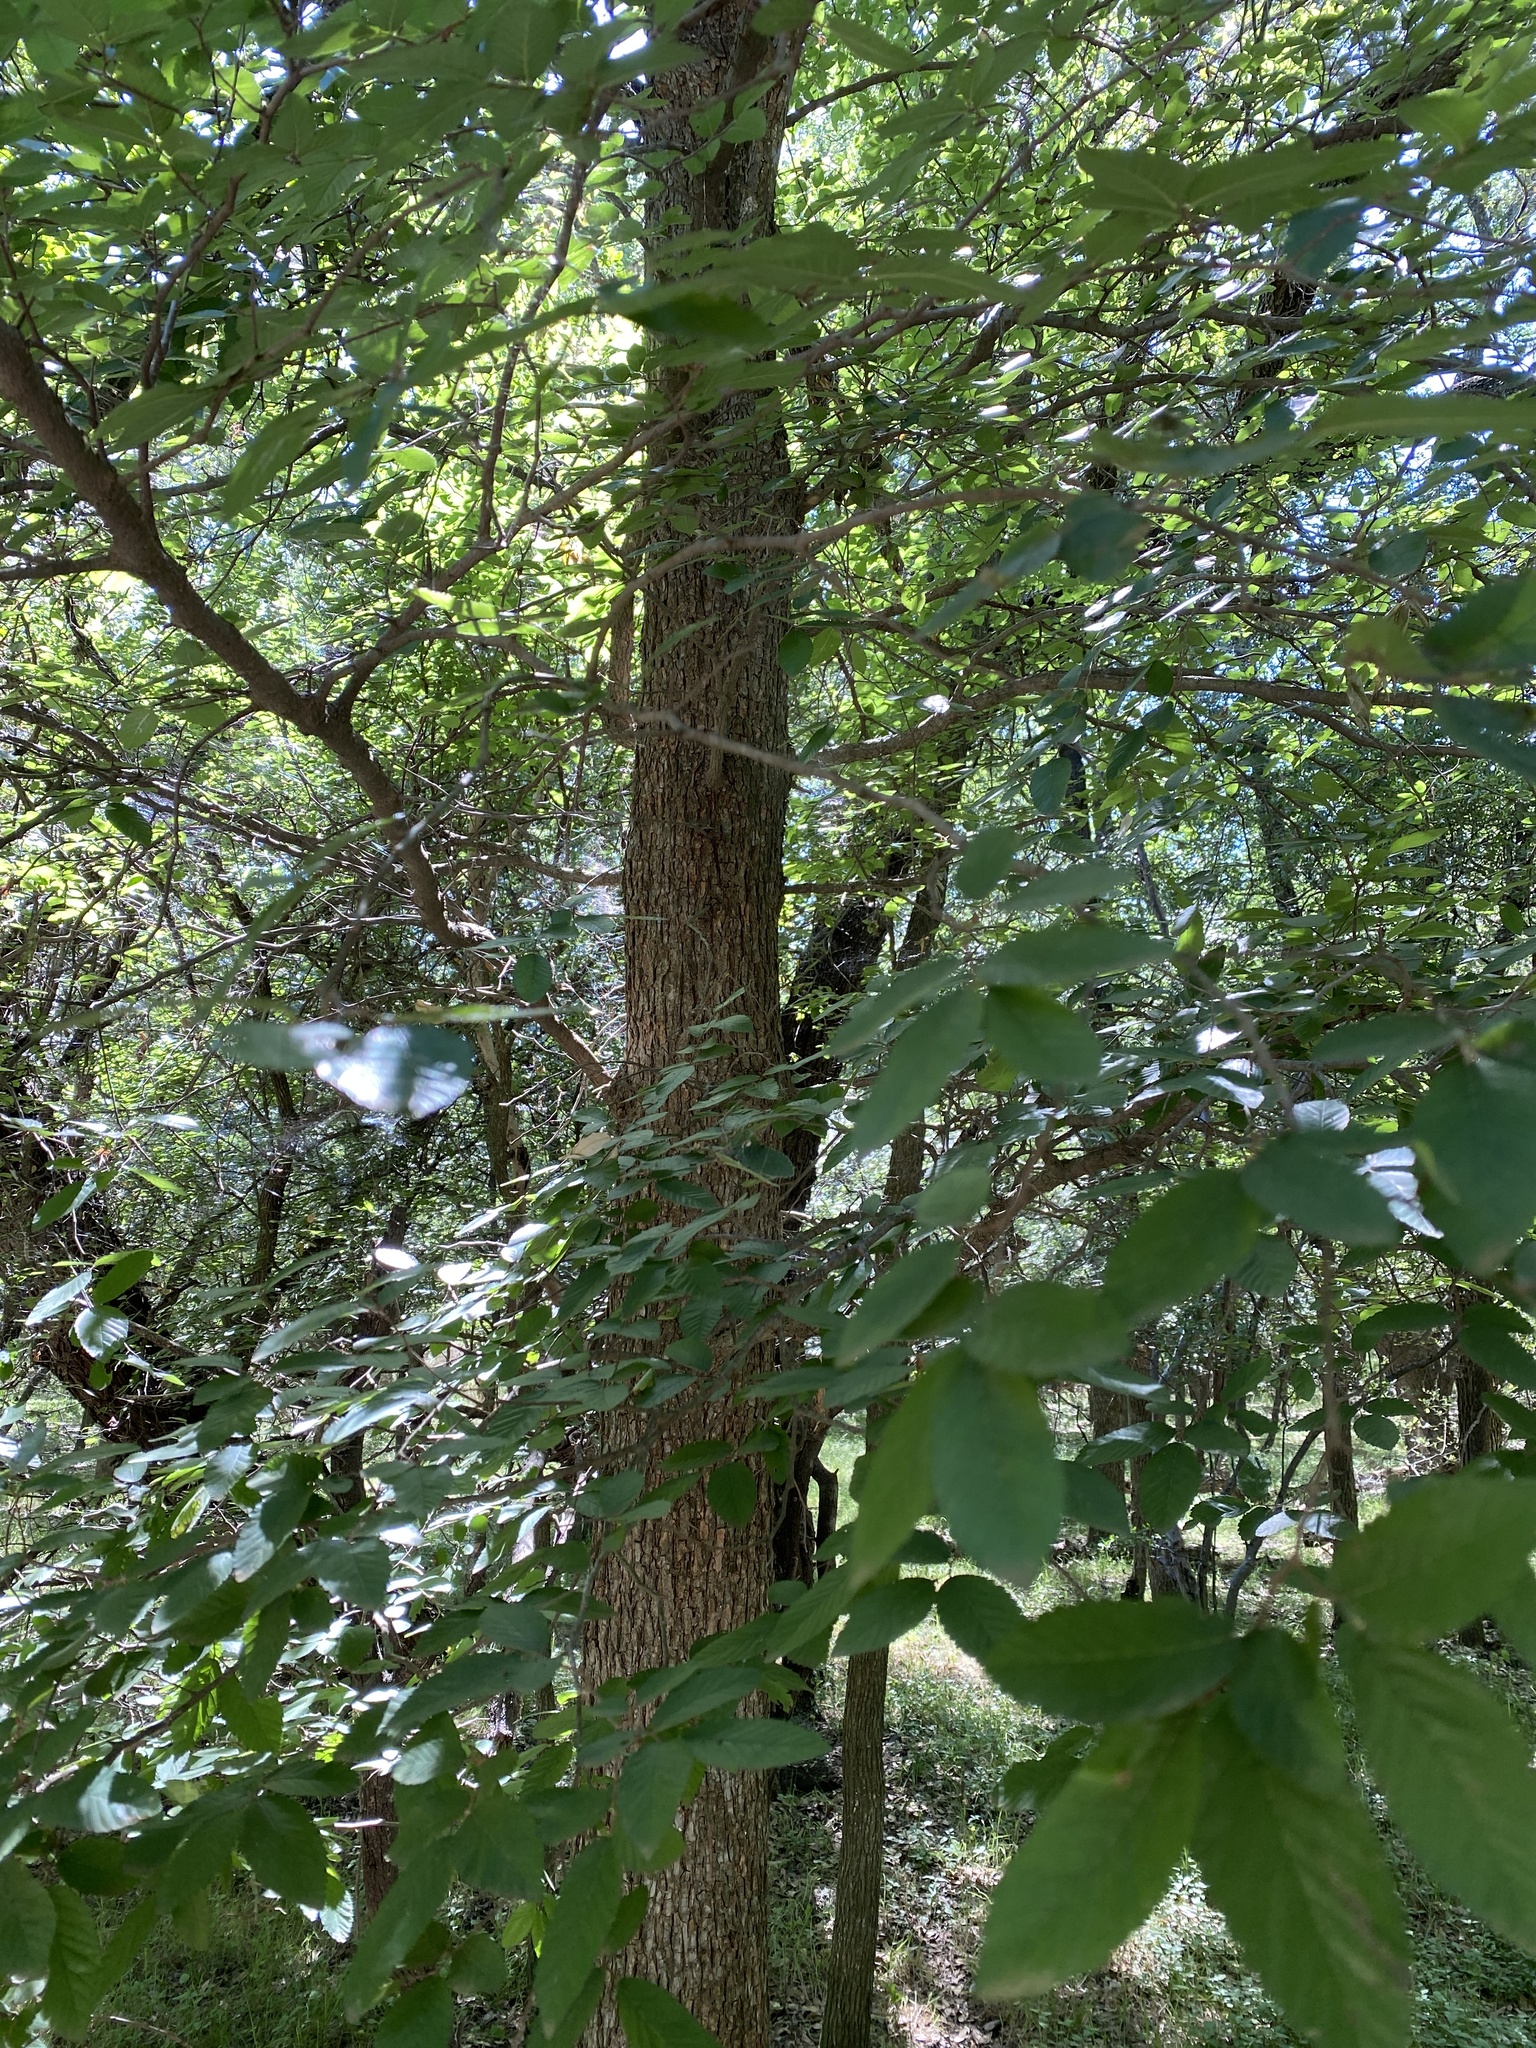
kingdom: Plantae
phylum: Tracheophyta
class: Magnoliopsida
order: Rosales
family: Ulmaceae
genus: Ulmus
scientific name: Ulmus crassifolia
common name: Basket elm
